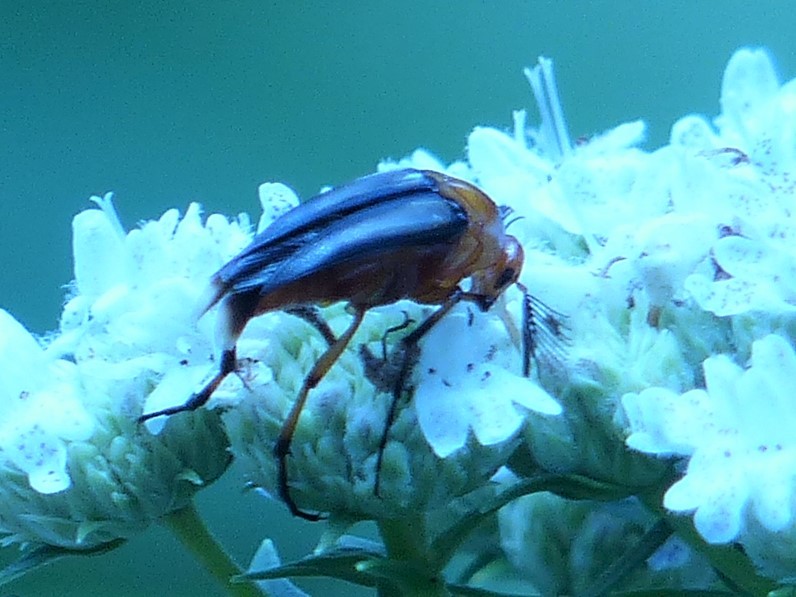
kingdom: Animalia
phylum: Arthropoda
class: Insecta
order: Coleoptera
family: Ripiphoridae
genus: Macrosiagon
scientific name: Macrosiagon limbatum
